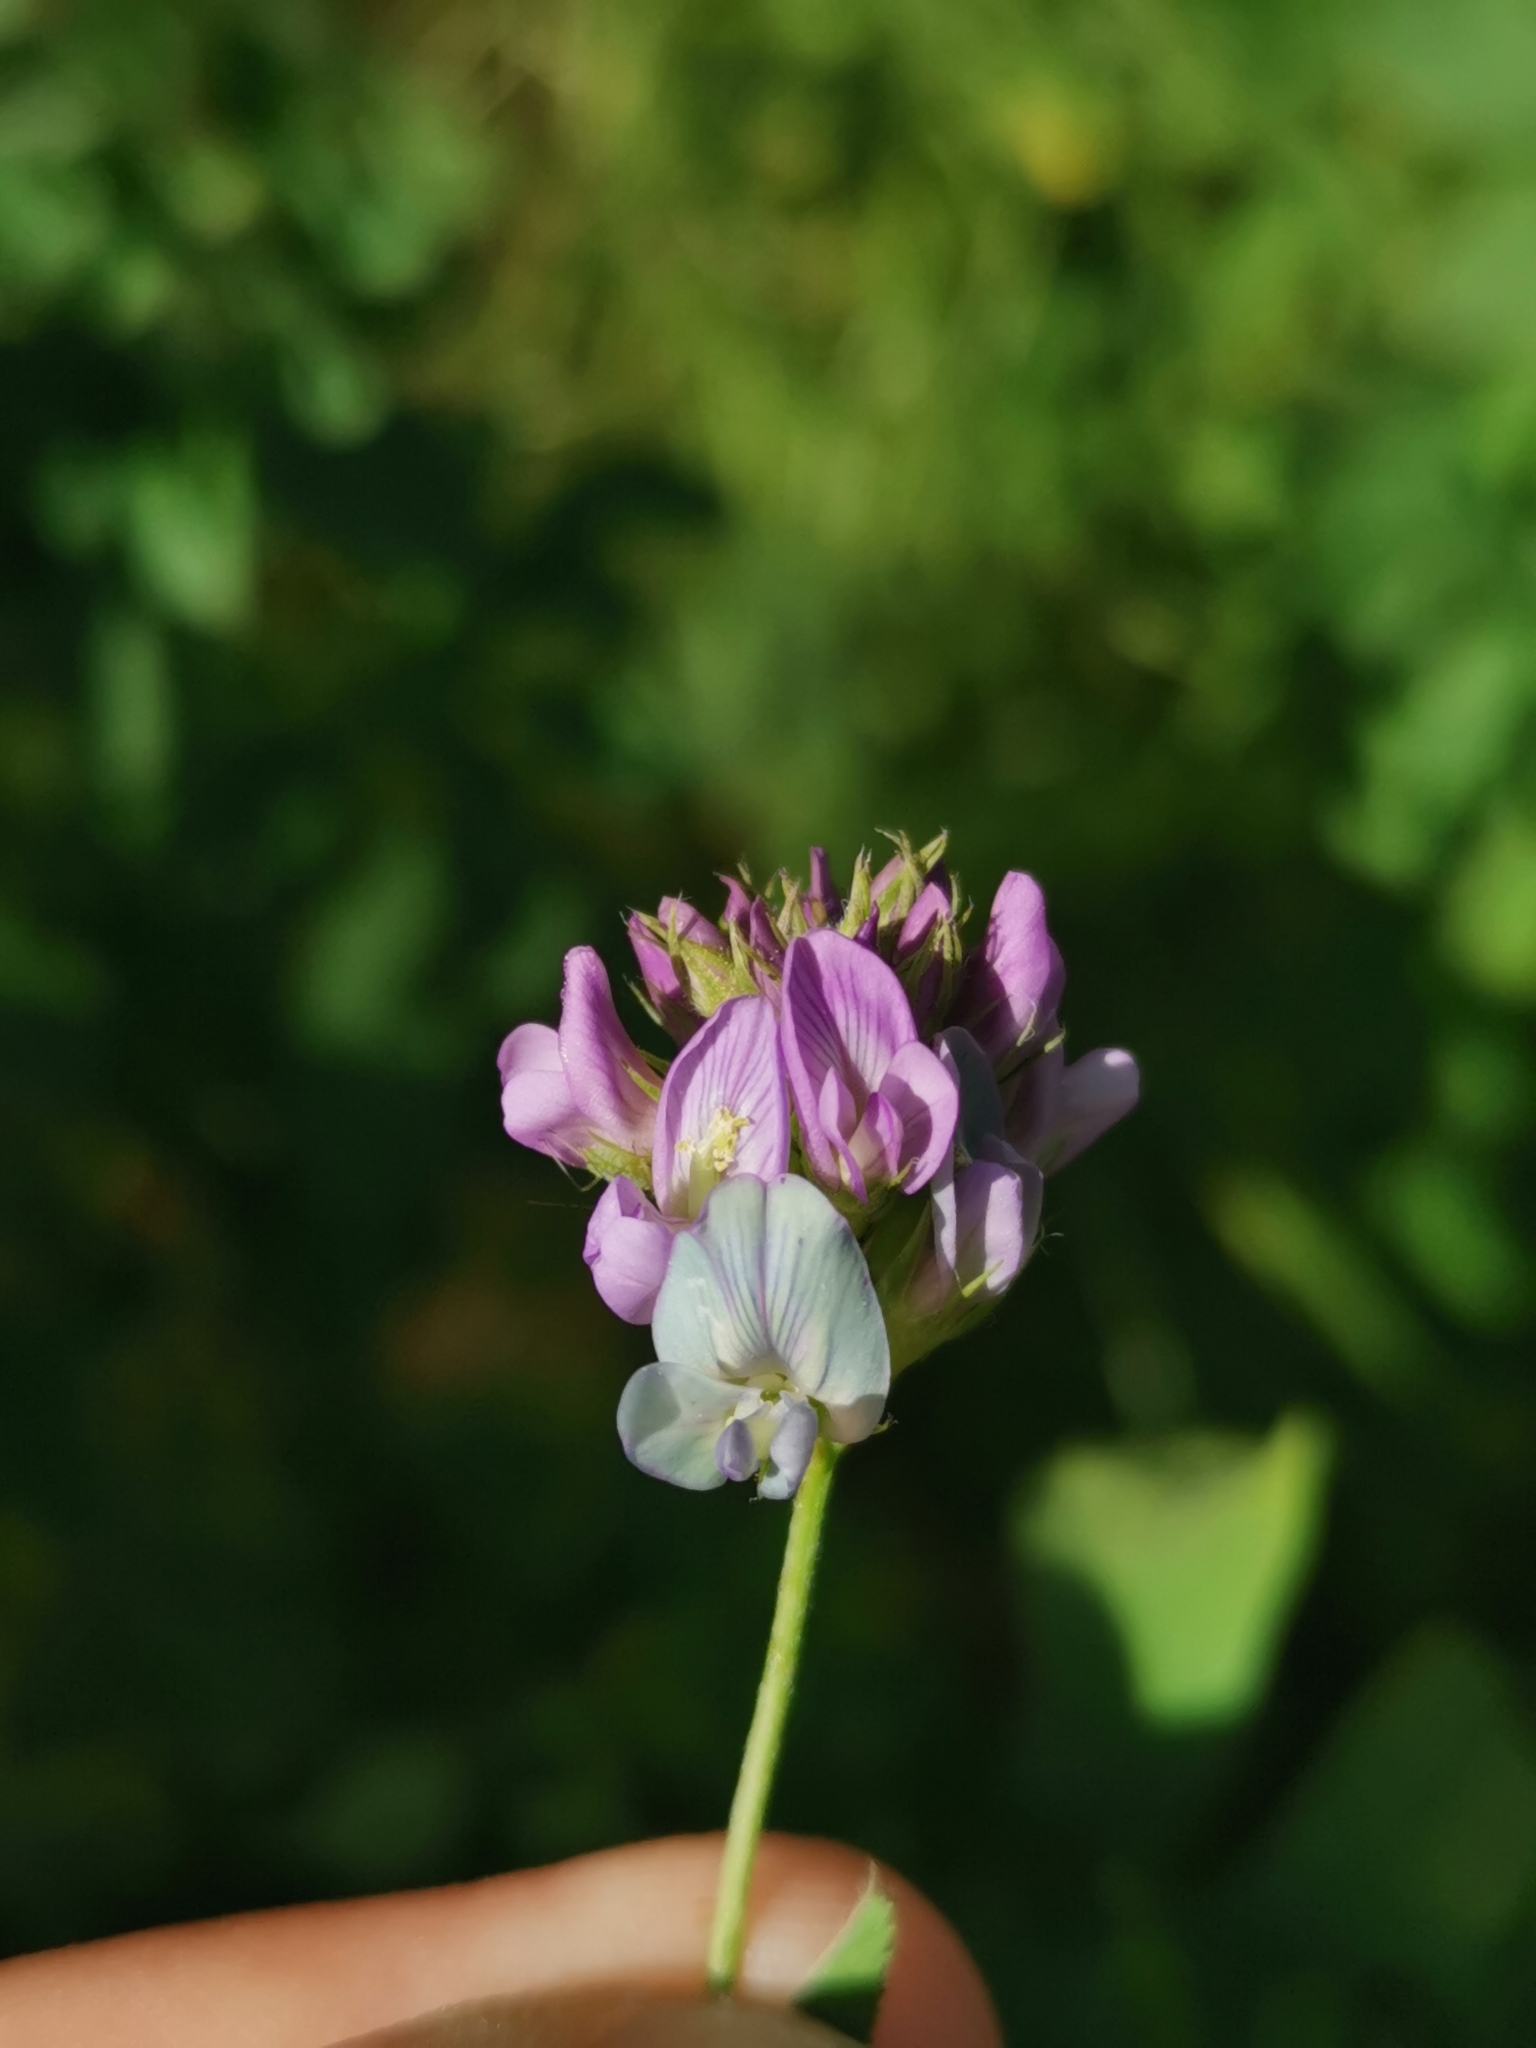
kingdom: Plantae
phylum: Tracheophyta
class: Magnoliopsida
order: Fabales
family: Fabaceae
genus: Medicago
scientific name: Medicago varia
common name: Sand lucerne
